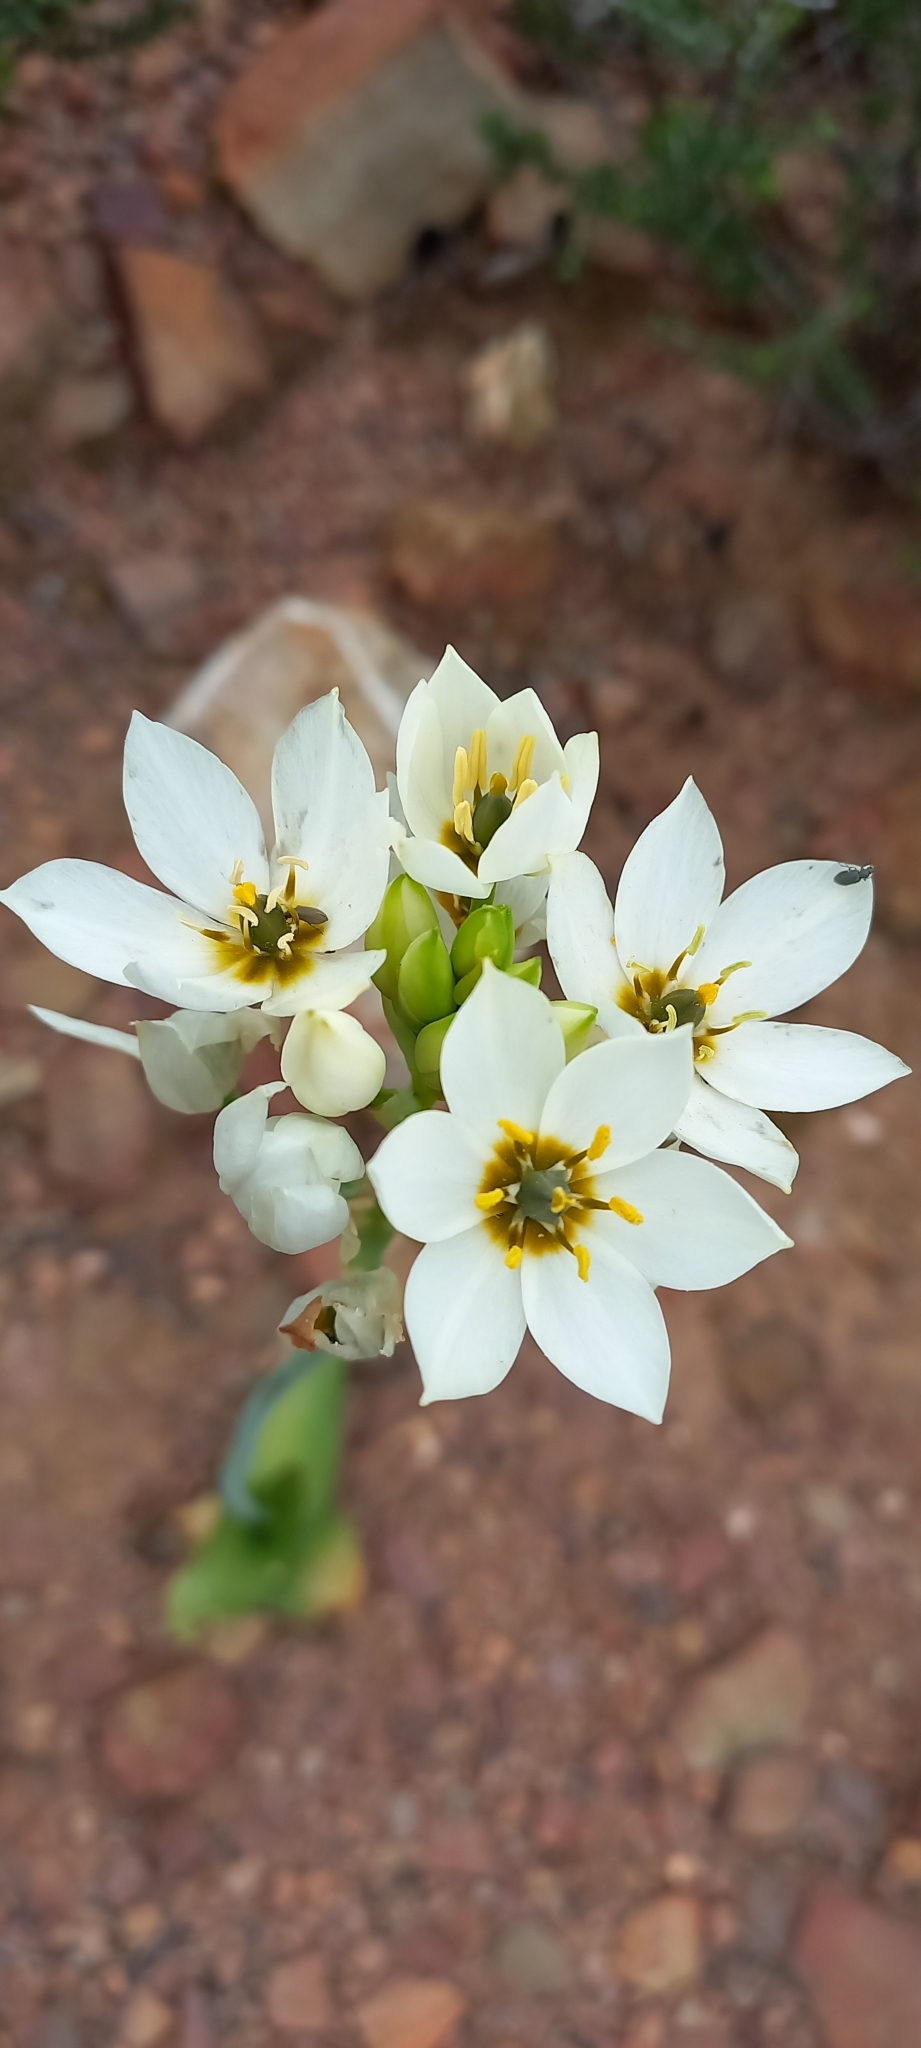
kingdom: Plantae
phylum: Tracheophyta
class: Liliopsida
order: Asparagales
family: Asparagaceae
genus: Ornithogalum
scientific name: Ornithogalum thyrsoides
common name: Chincherinchee
